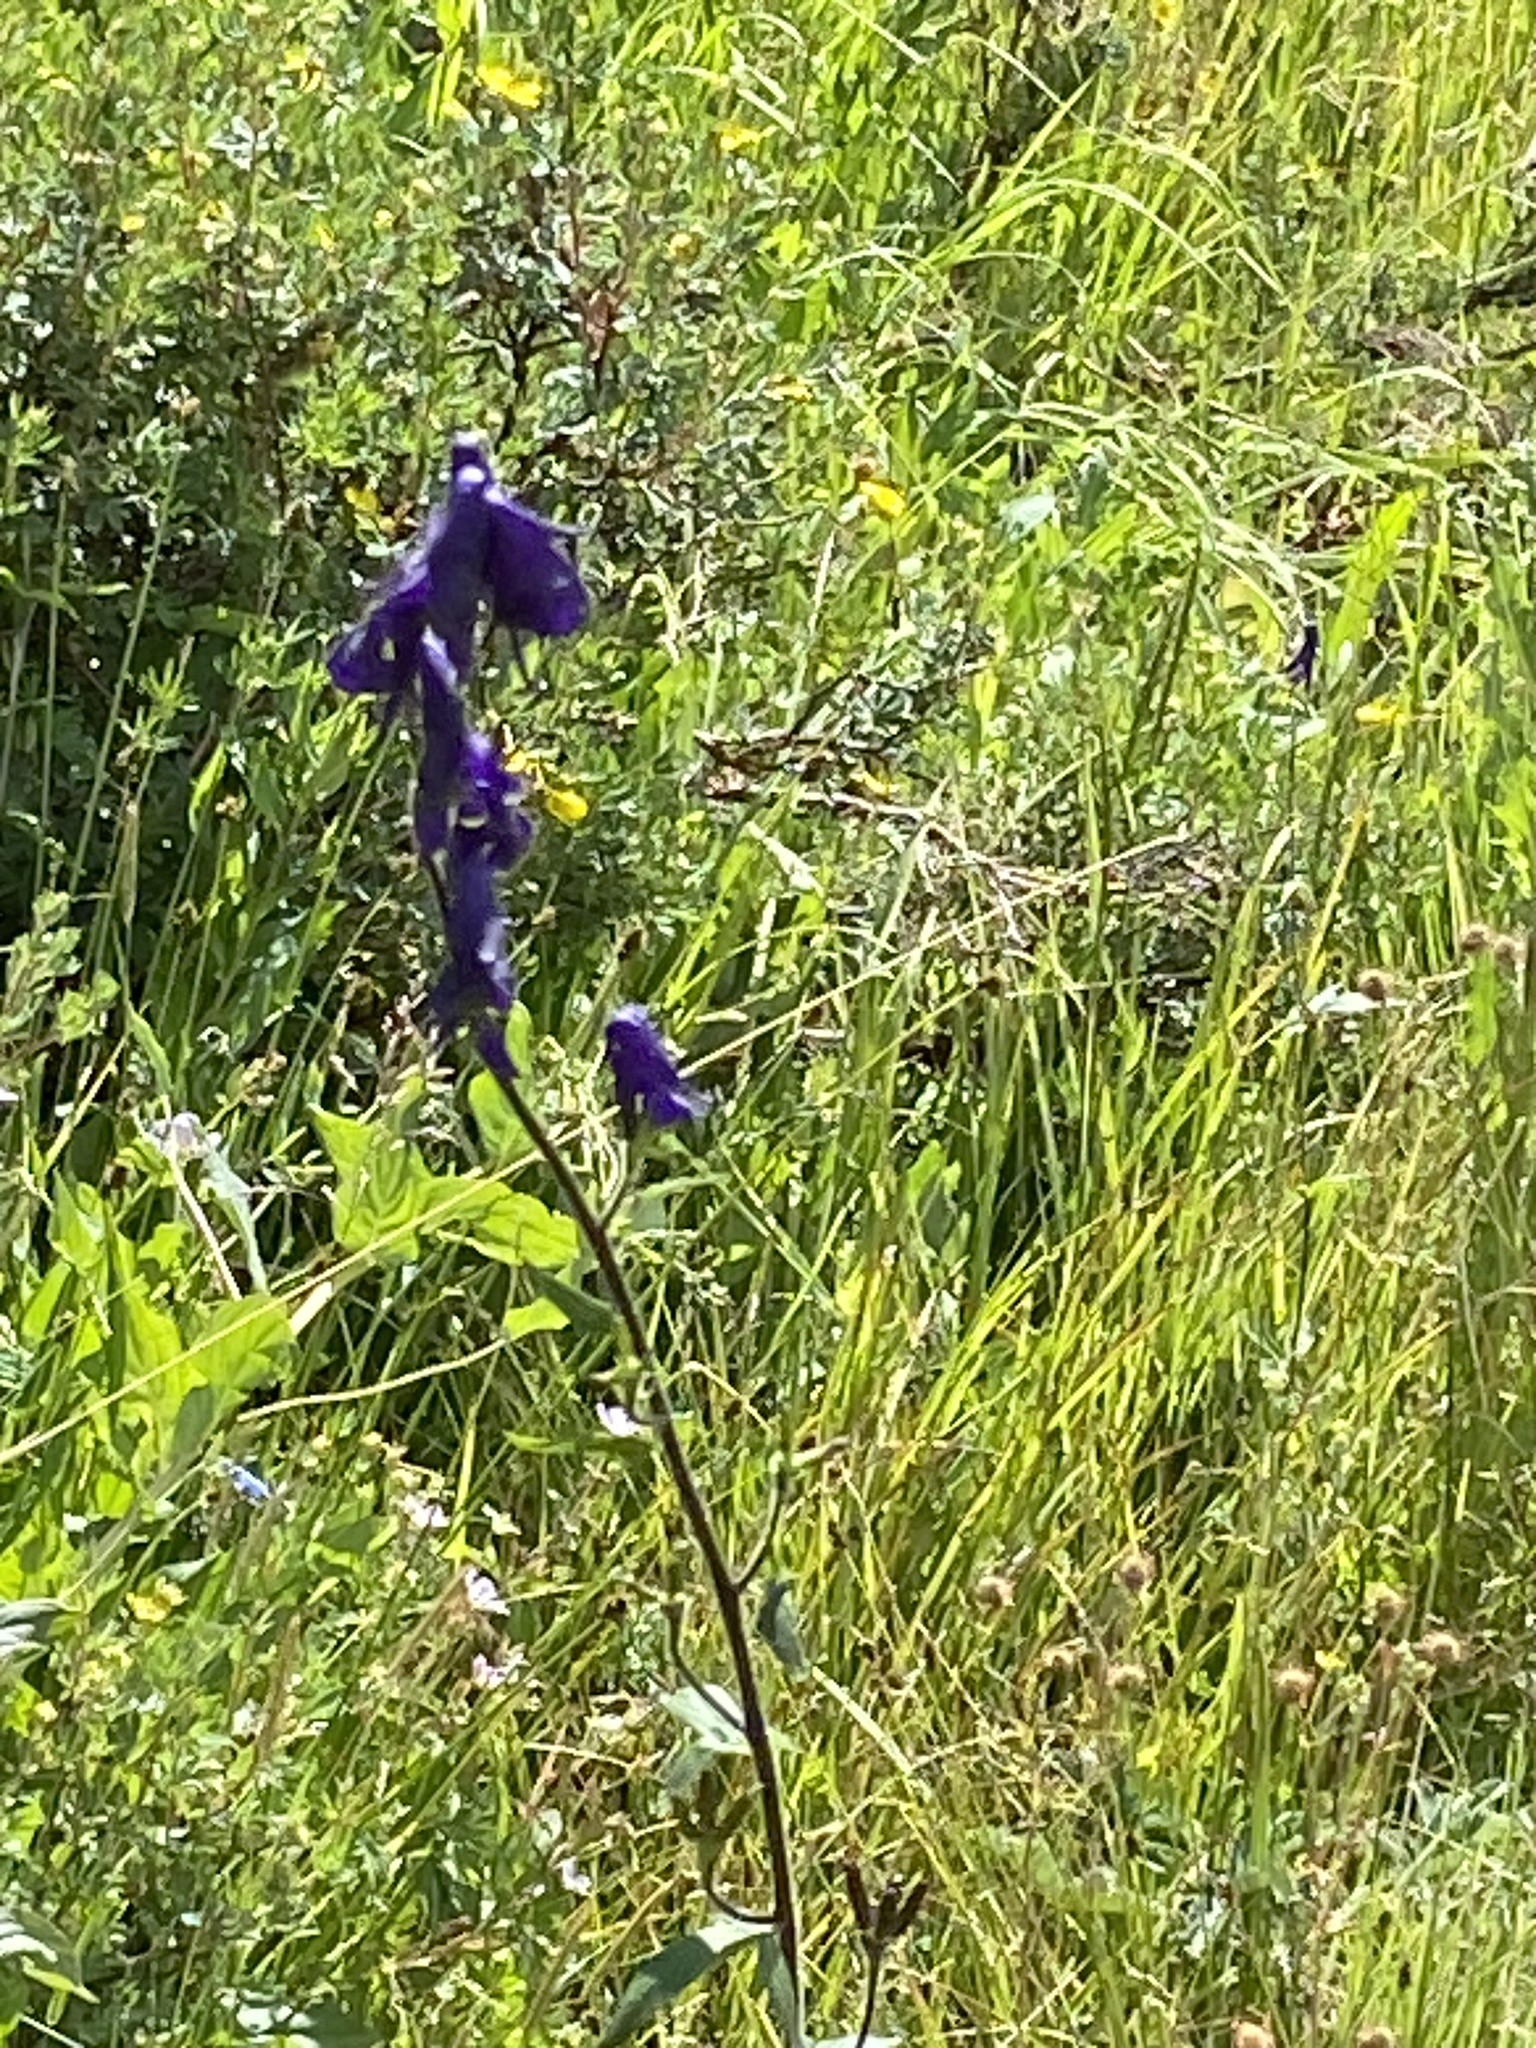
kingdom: Plantae
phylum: Tracheophyta
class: Magnoliopsida
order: Ranunculales
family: Ranunculaceae
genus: Aconitum
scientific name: Aconitum columbianum
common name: Columbia aconite
